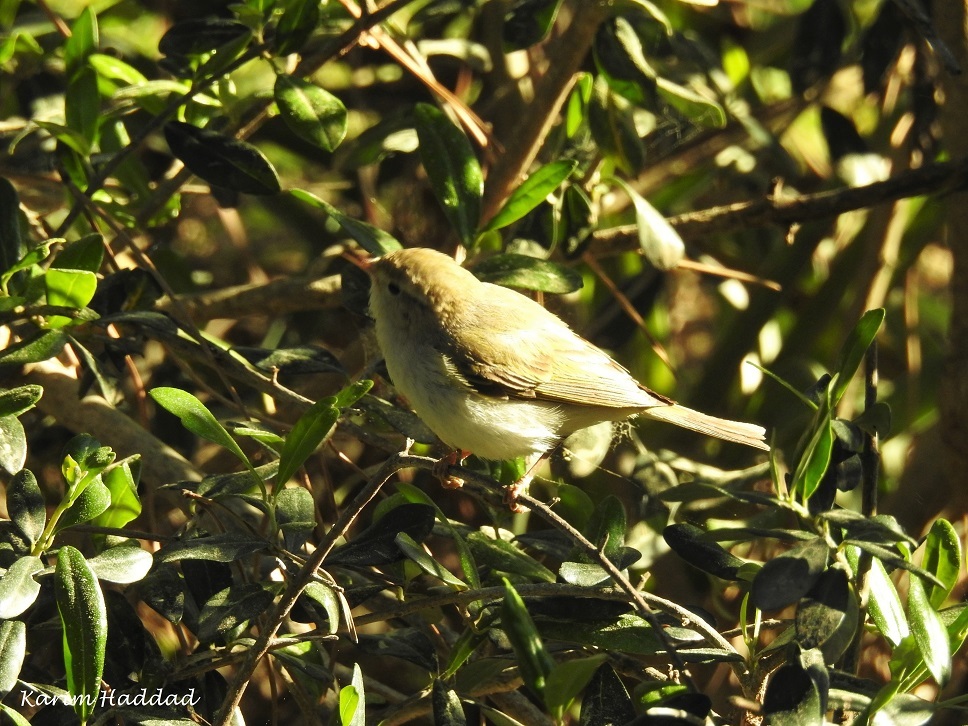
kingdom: Animalia
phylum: Chordata
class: Aves
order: Passeriformes
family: Phylloscopidae
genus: Phylloscopus
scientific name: Phylloscopus bonelli
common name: Western bonelli's warbler
